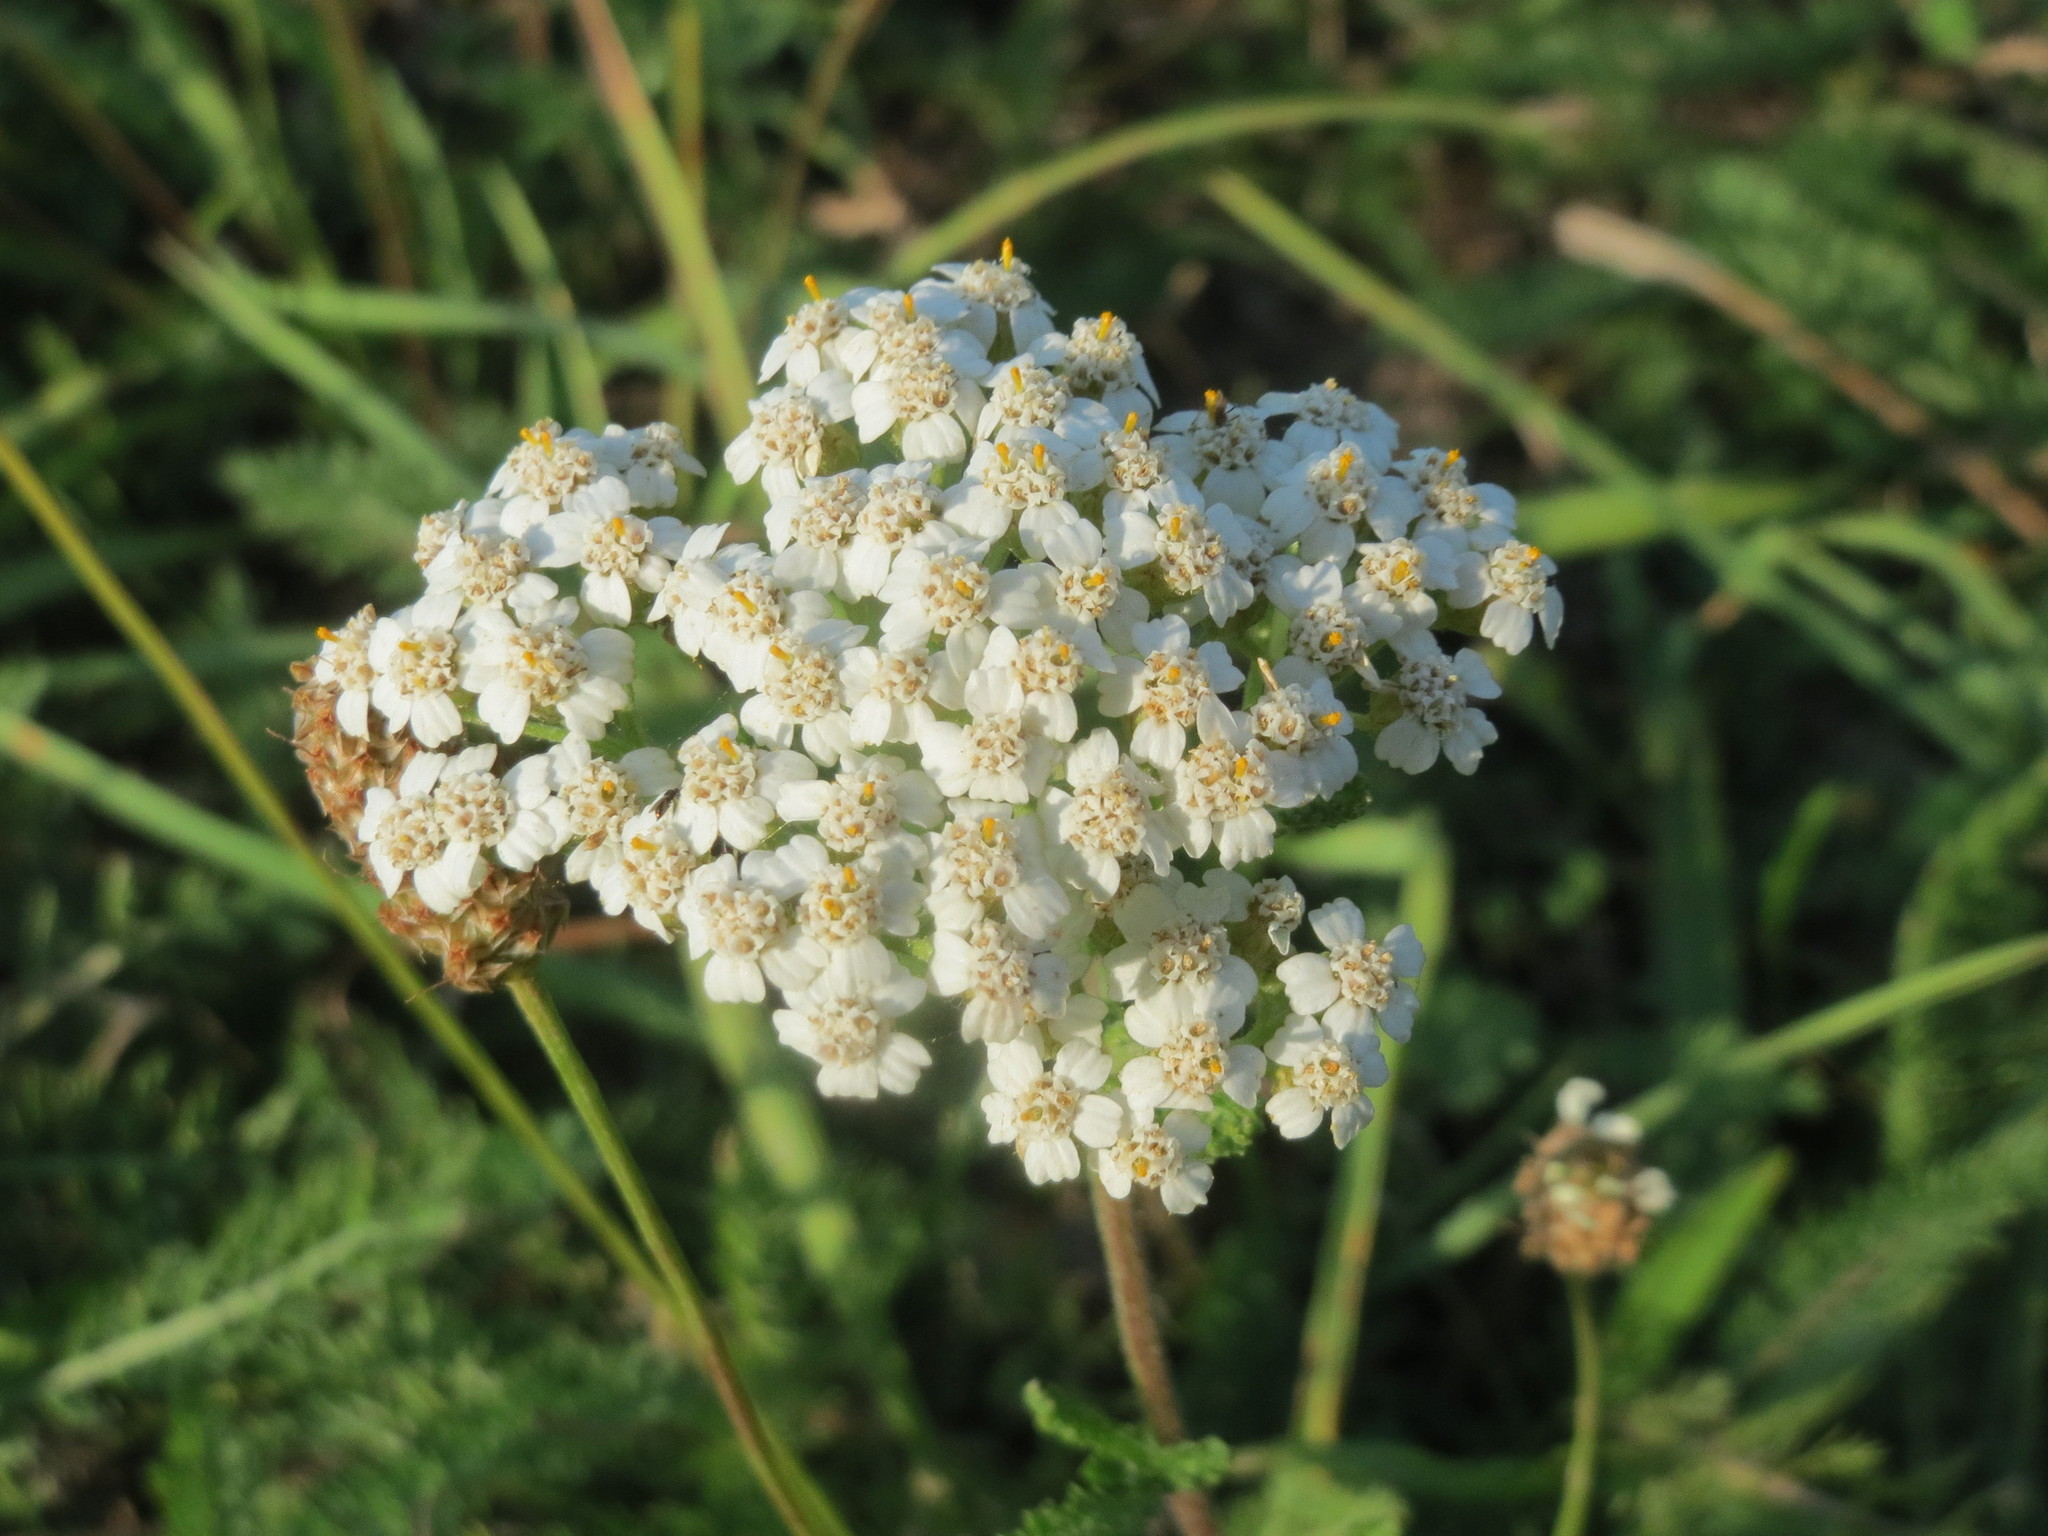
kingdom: Plantae
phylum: Tracheophyta
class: Magnoliopsida
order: Asterales
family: Asteraceae
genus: Achillea
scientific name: Achillea millefolium
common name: Yarrow
